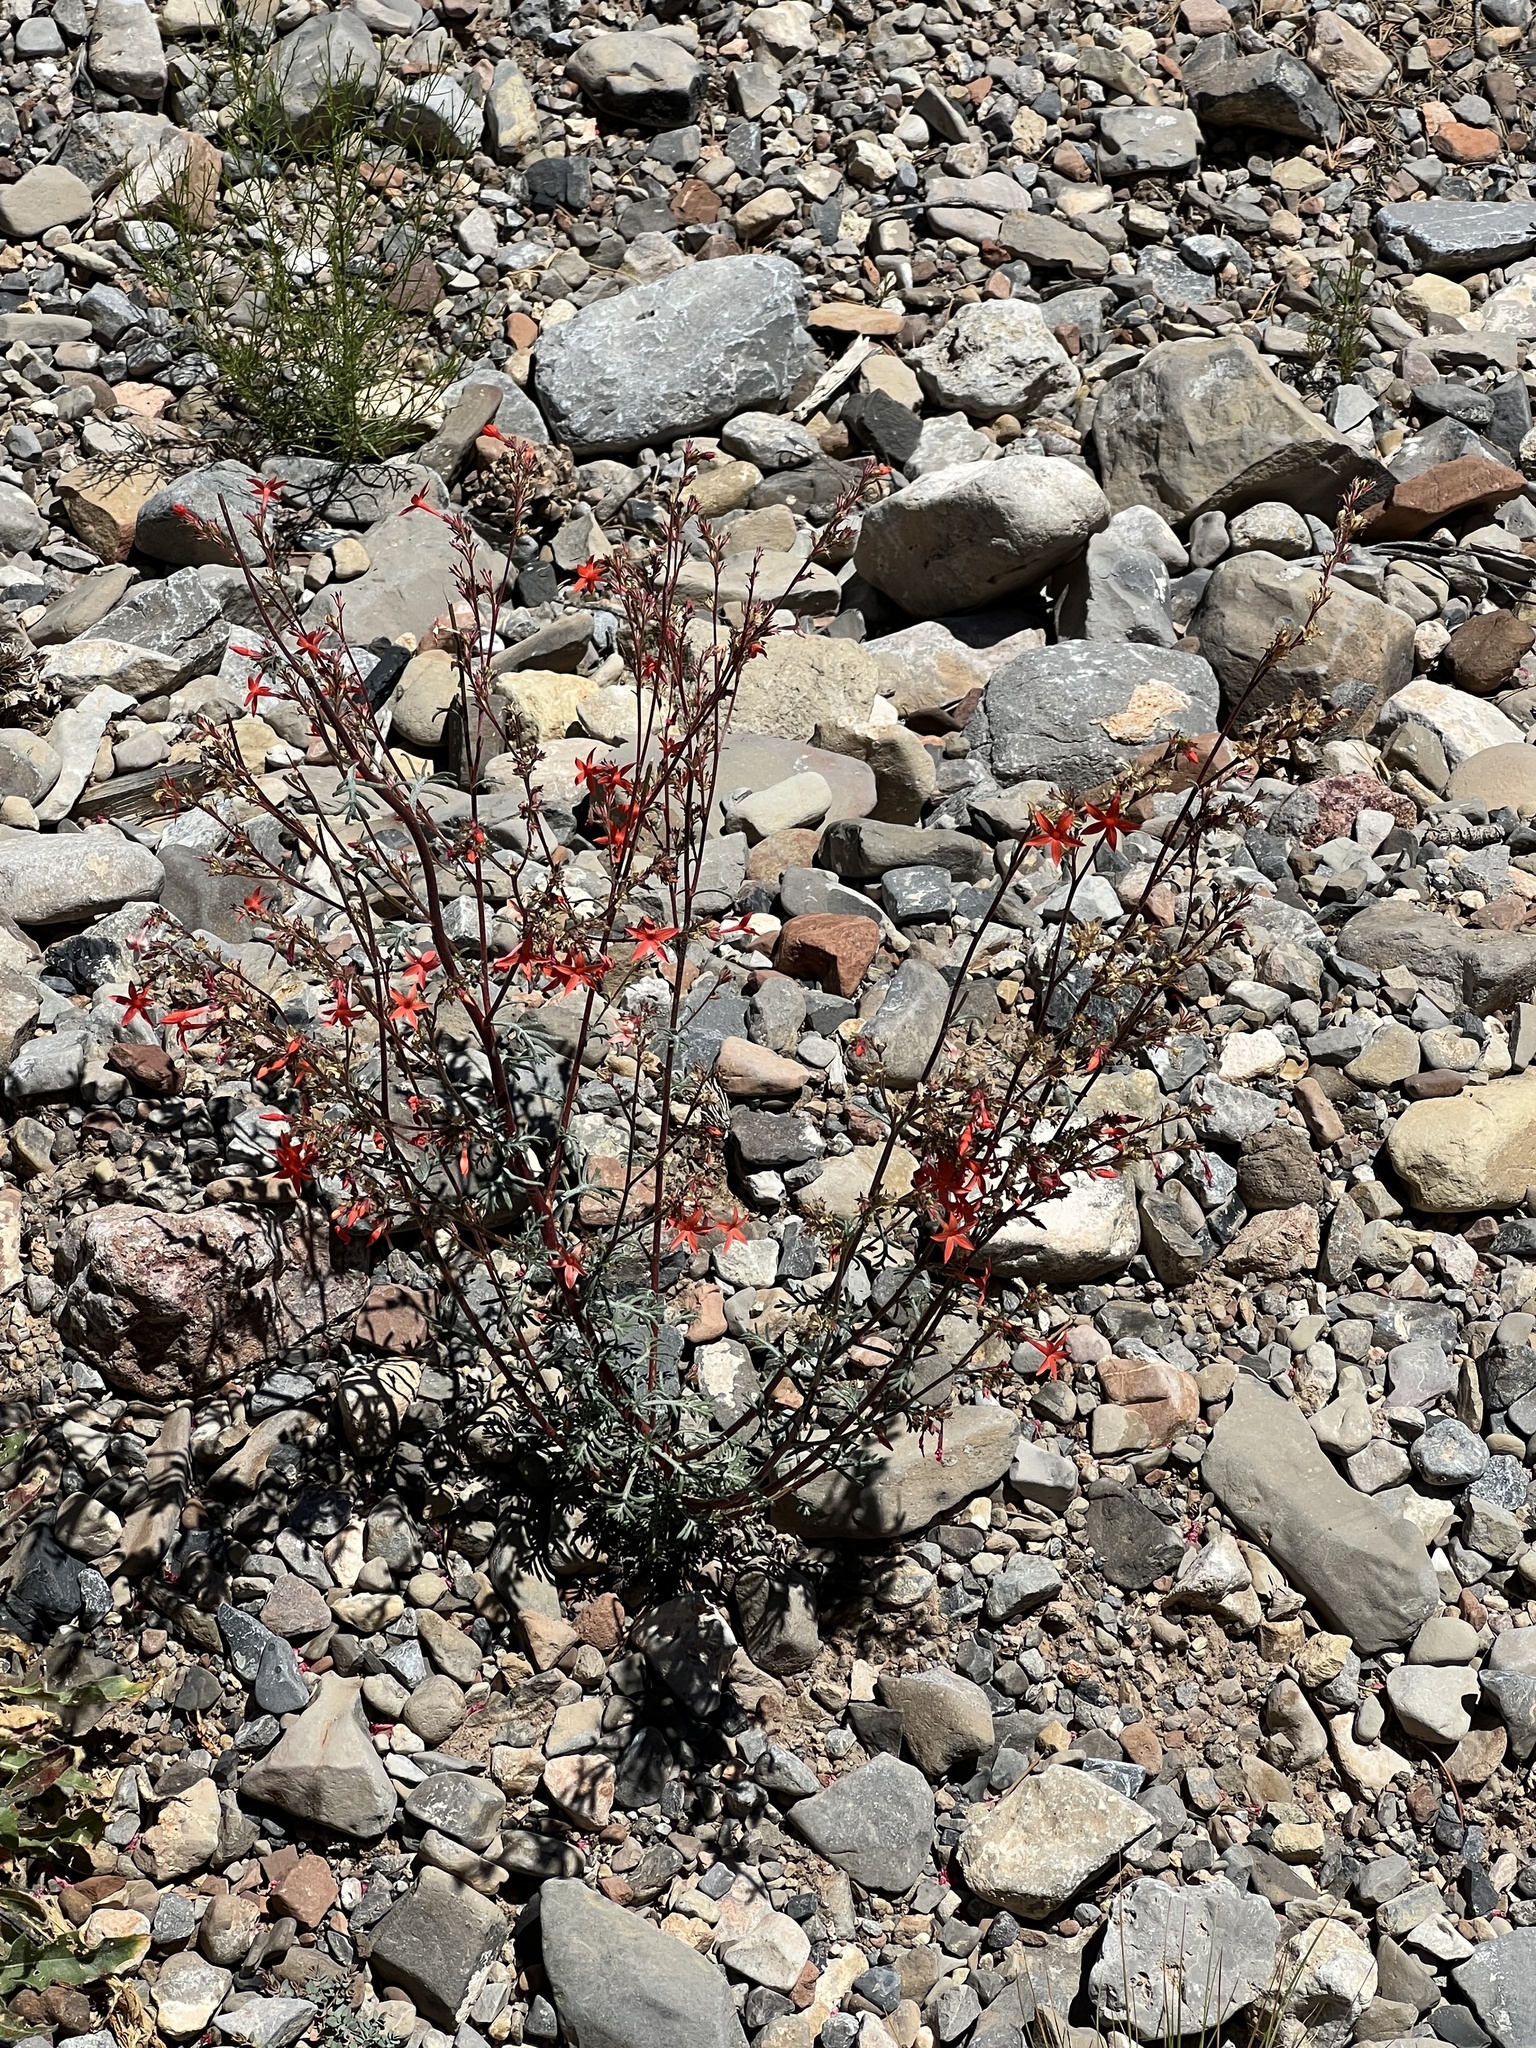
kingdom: Plantae
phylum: Tracheophyta
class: Magnoliopsida
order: Ericales
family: Polemoniaceae
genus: Ipomopsis
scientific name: Ipomopsis arizonica
